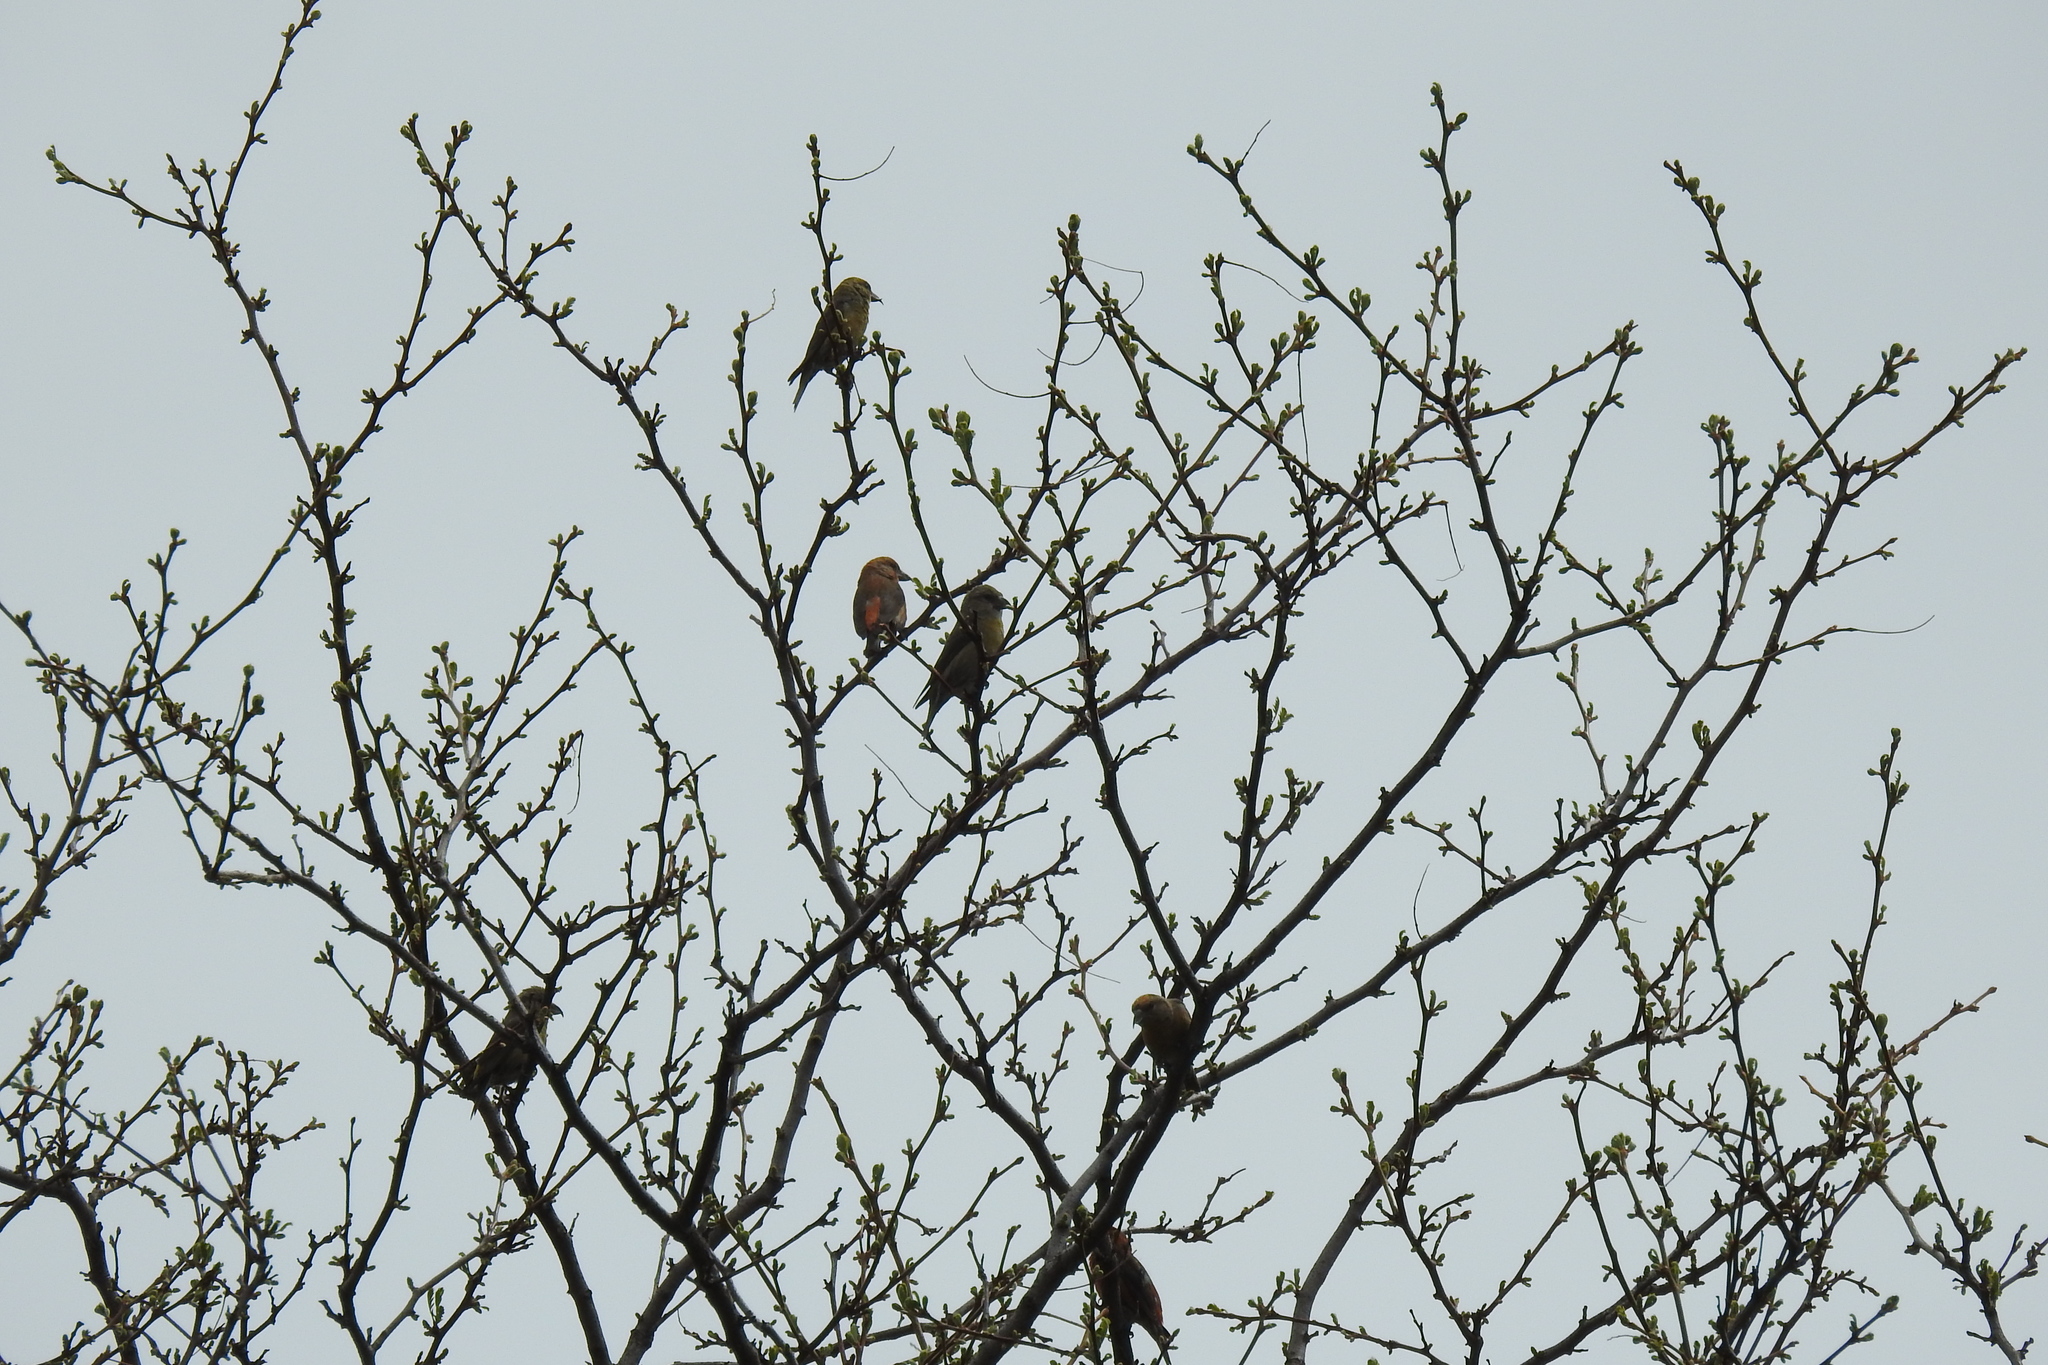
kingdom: Animalia
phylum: Chordata
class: Aves
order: Passeriformes
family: Fringillidae
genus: Loxia
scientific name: Loxia curvirostra
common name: Red crossbill
